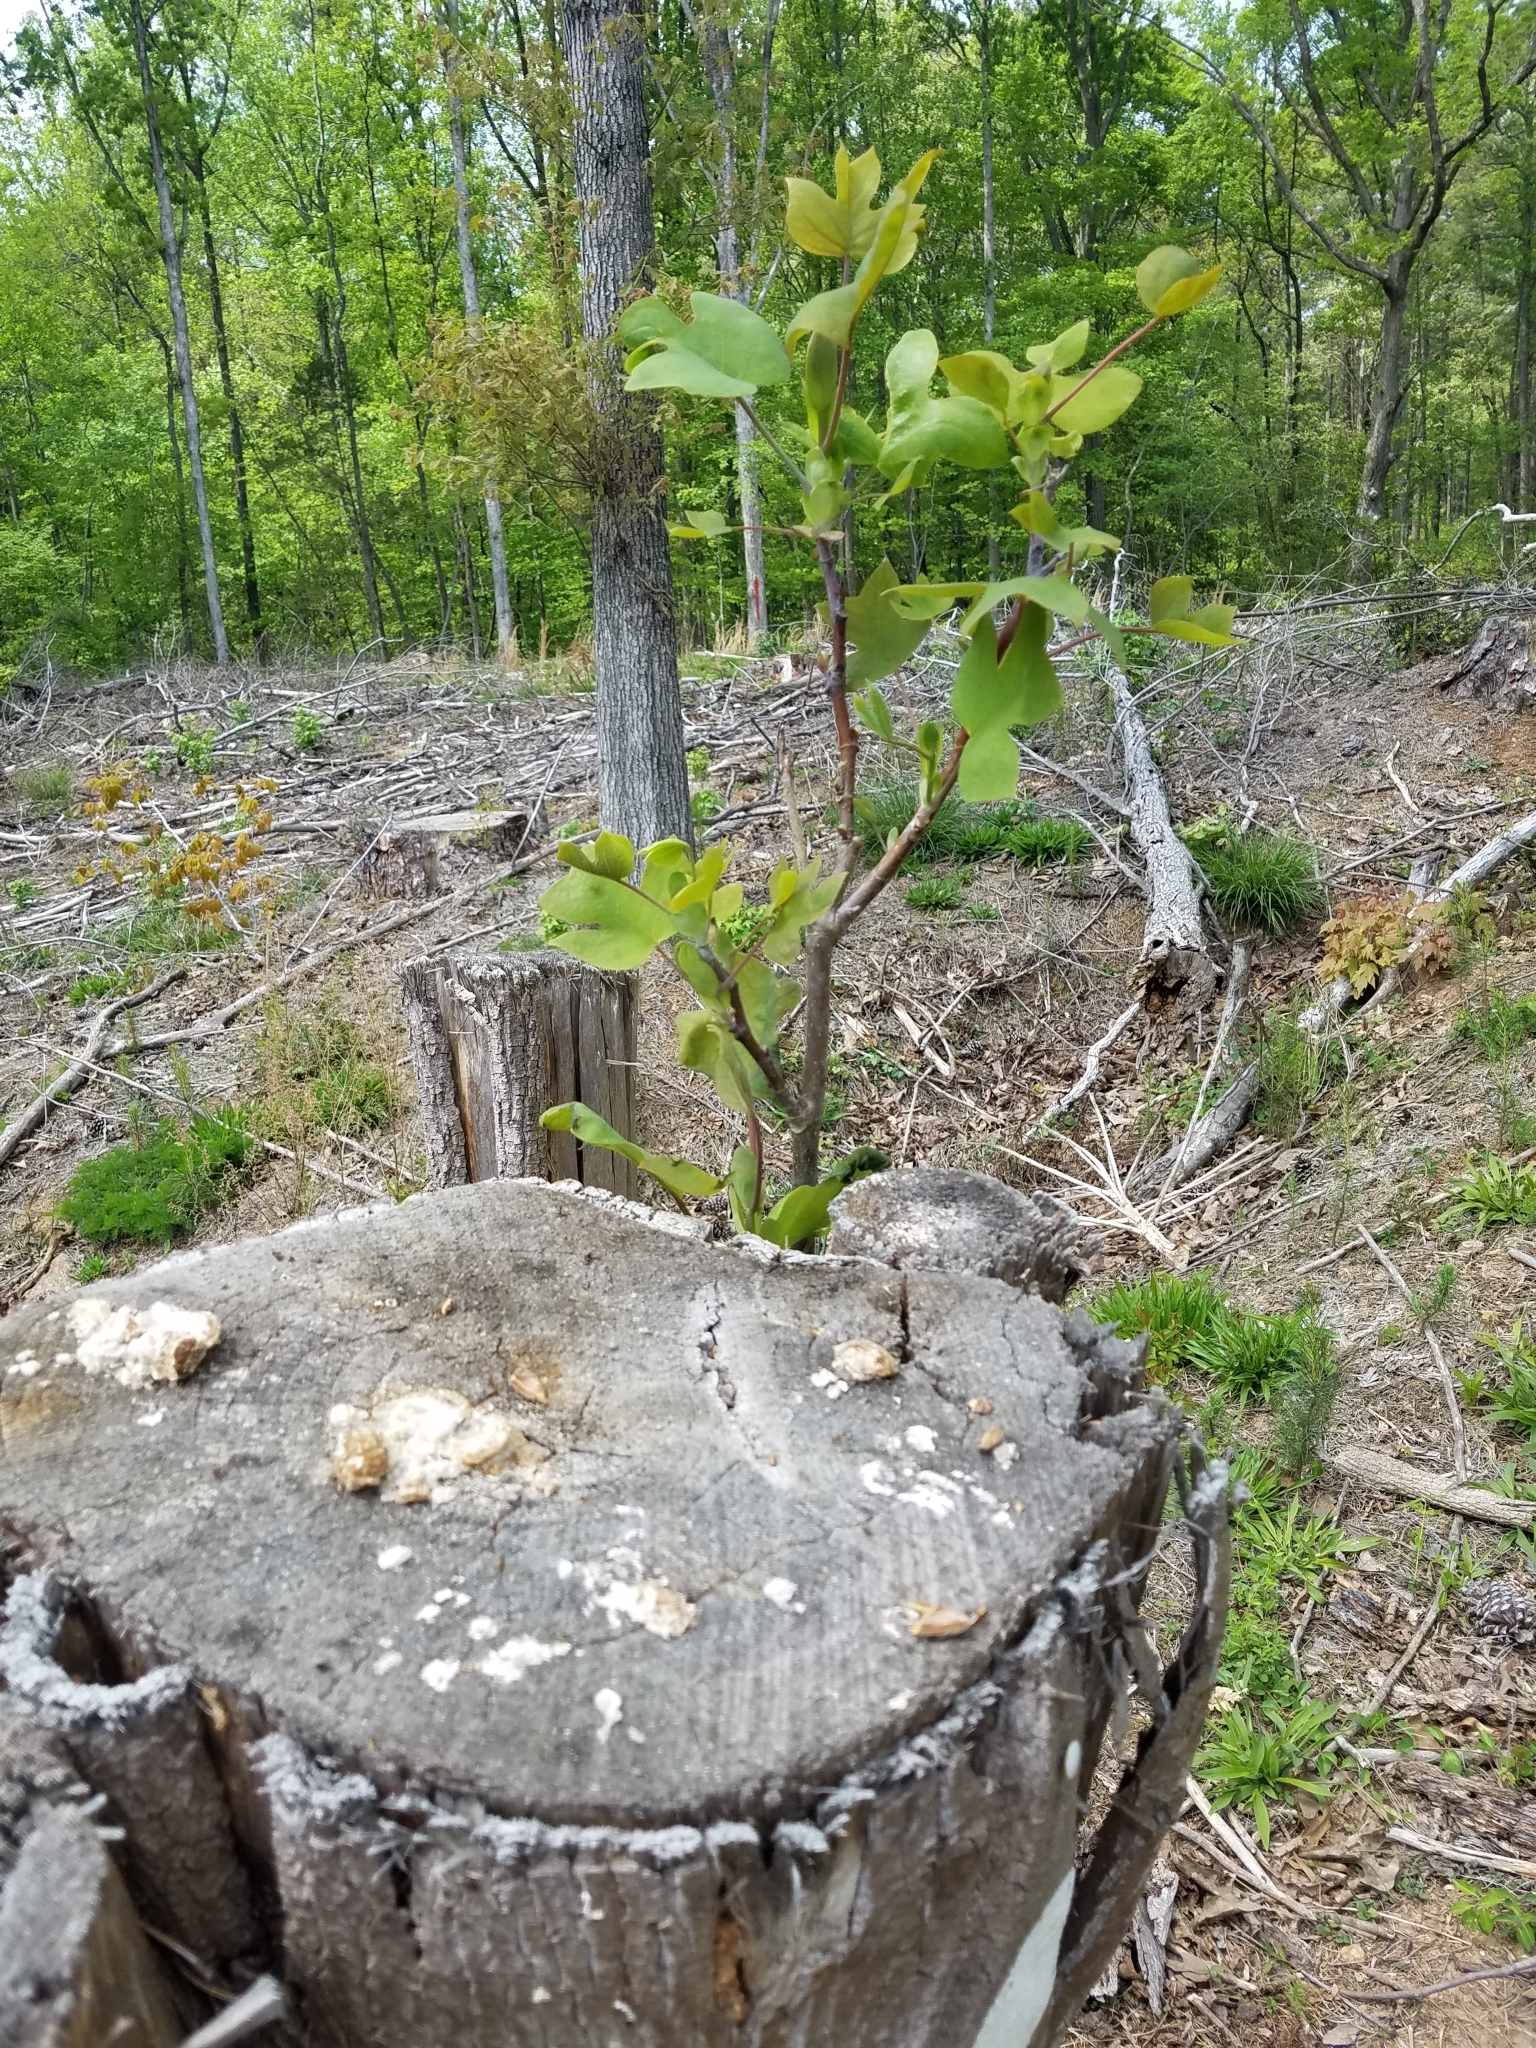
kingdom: Plantae
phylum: Tracheophyta
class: Magnoliopsida
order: Magnoliales
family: Magnoliaceae
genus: Liriodendron
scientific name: Liriodendron tulipifera
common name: Tulip tree
